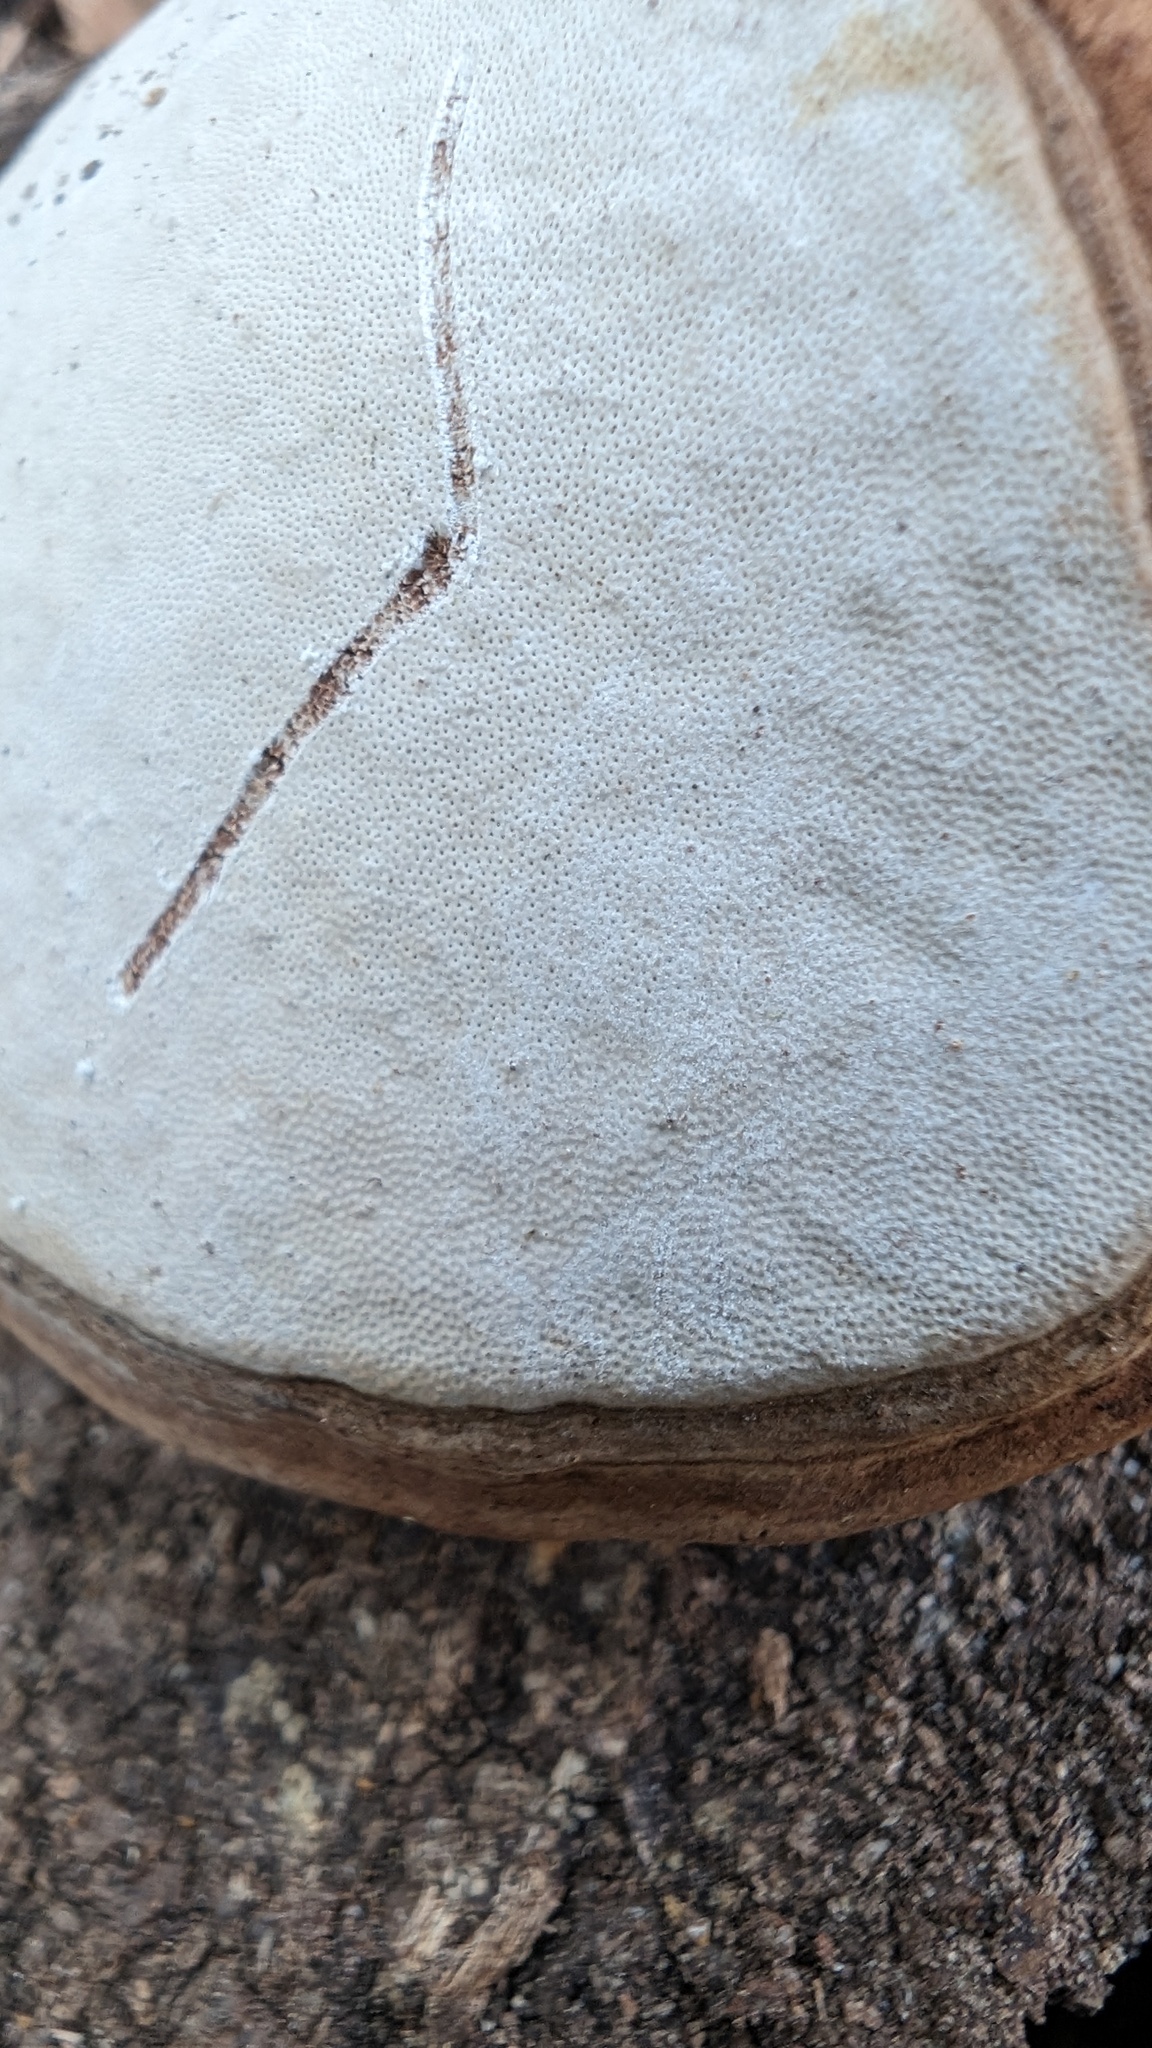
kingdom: Fungi
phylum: Basidiomycota
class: Agaricomycetes
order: Polyporales
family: Polyporaceae
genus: Ganoderma
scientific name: Ganoderma applanatum
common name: Artist's bracket
